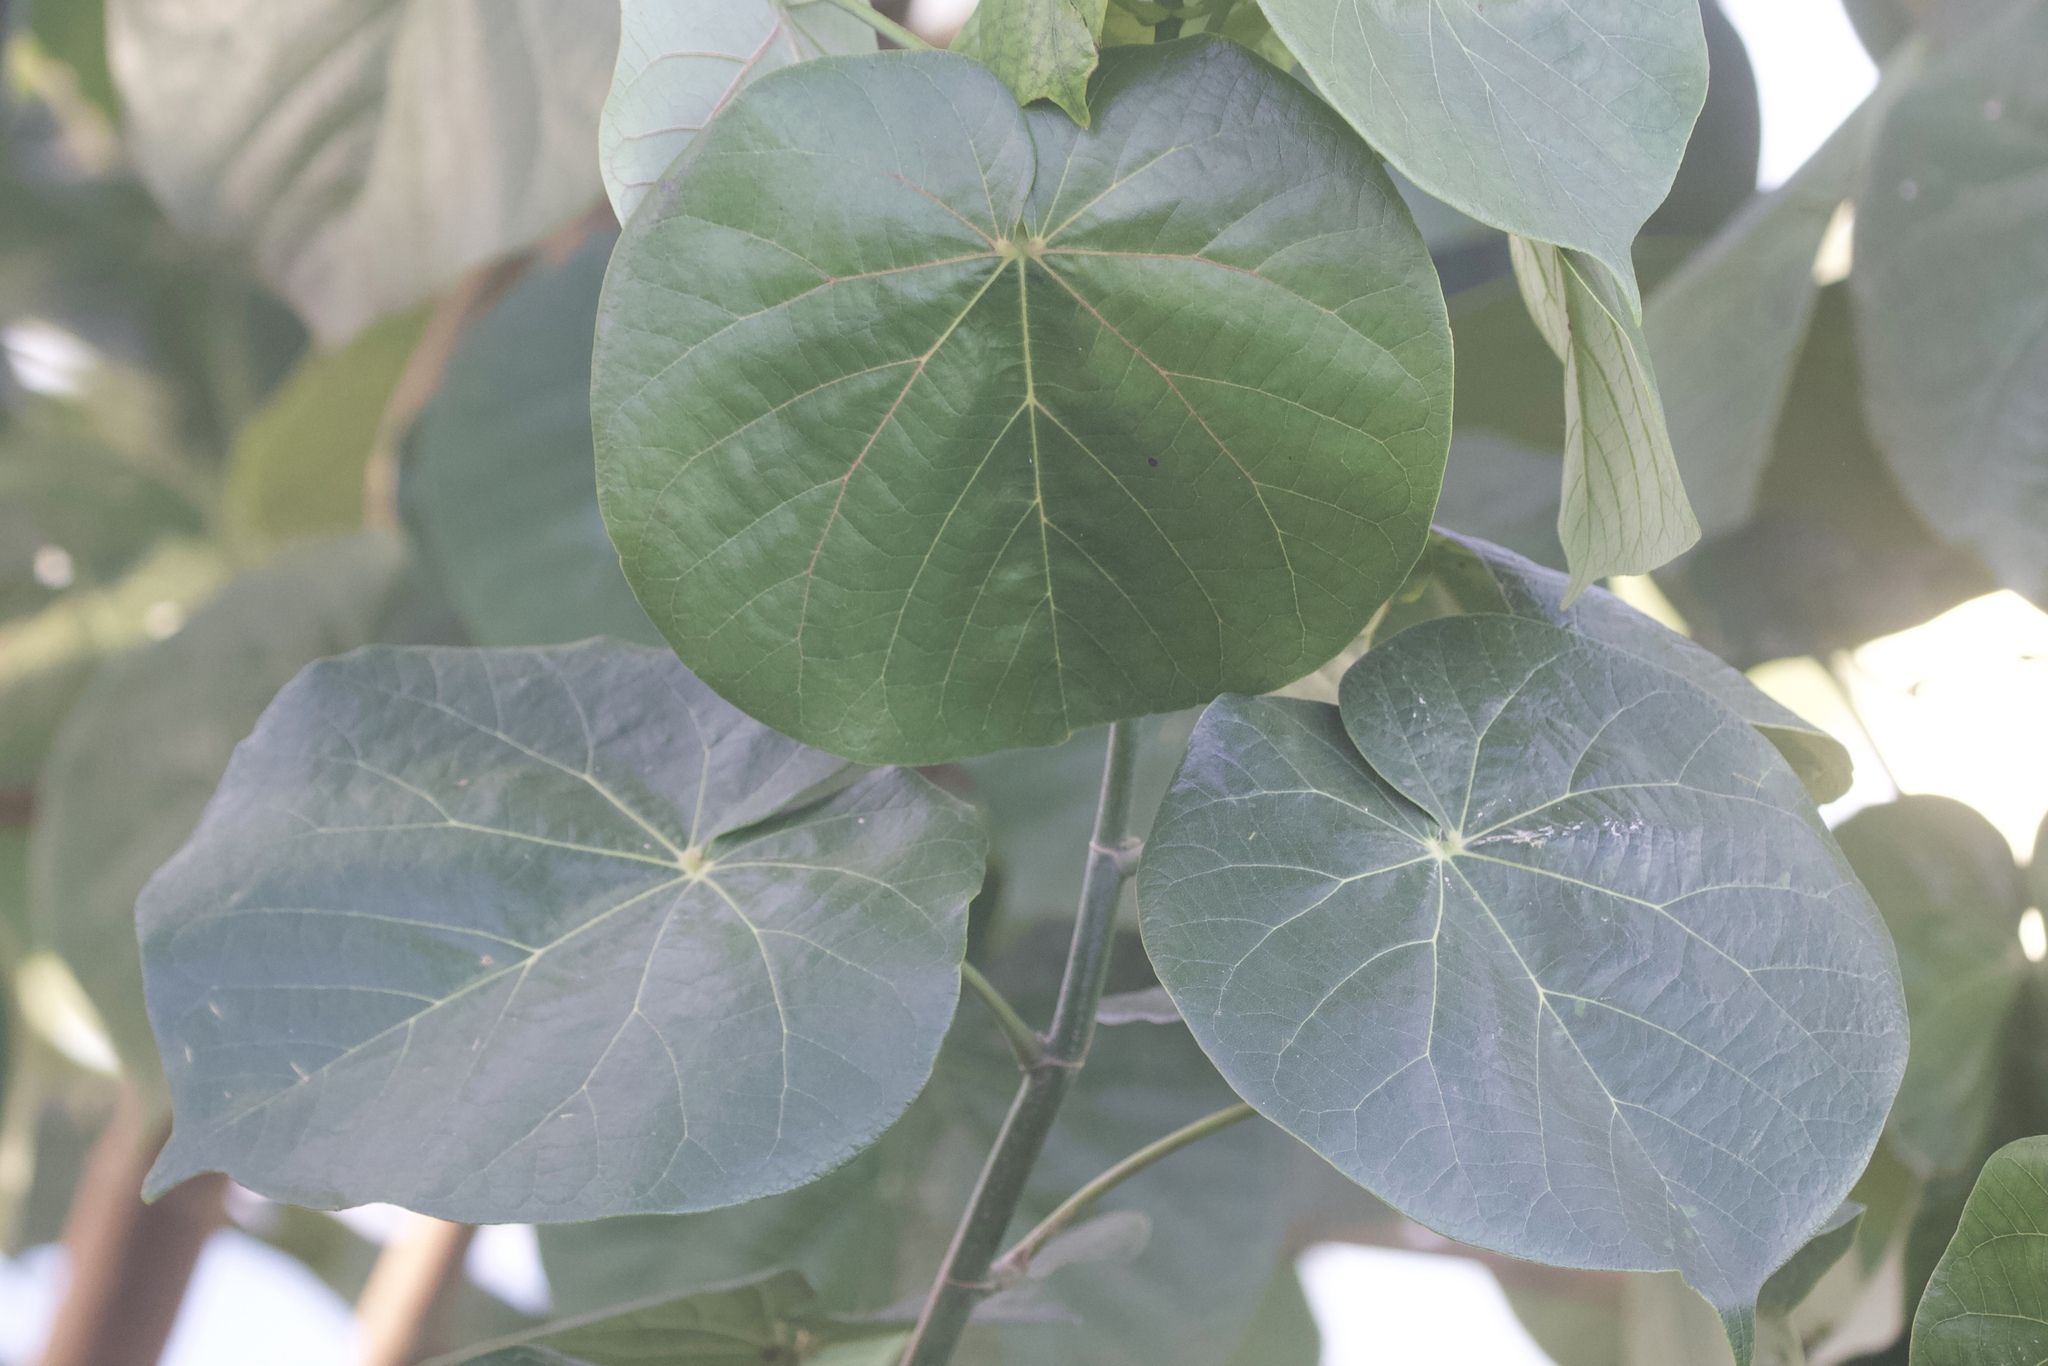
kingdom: Plantae
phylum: Tracheophyta
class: Magnoliopsida
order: Malvales
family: Malvaceae
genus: Talipariti
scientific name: Talipariti tiliaceum
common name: Sea hibiscus
